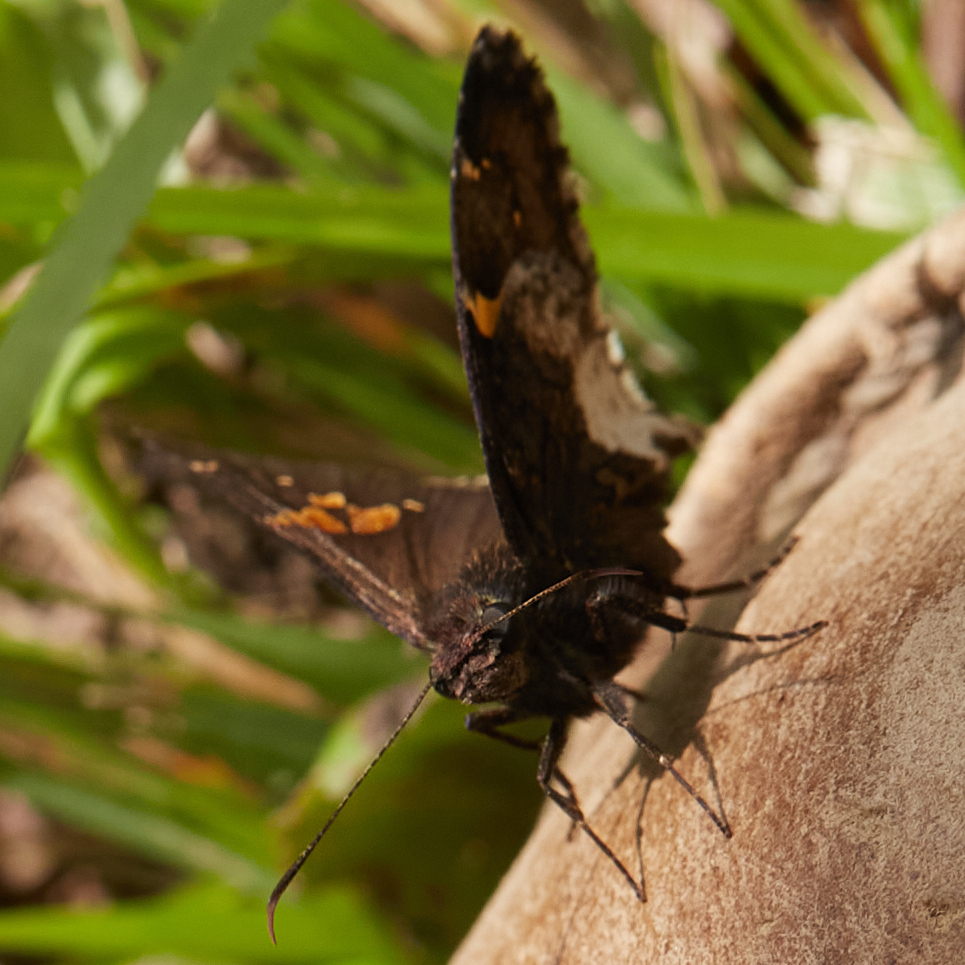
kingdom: Animalia
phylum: Arthropoda
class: Insecta
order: Lepidoptera
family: Hesperiidae
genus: Thorybes
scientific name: Thorybes lyciades
